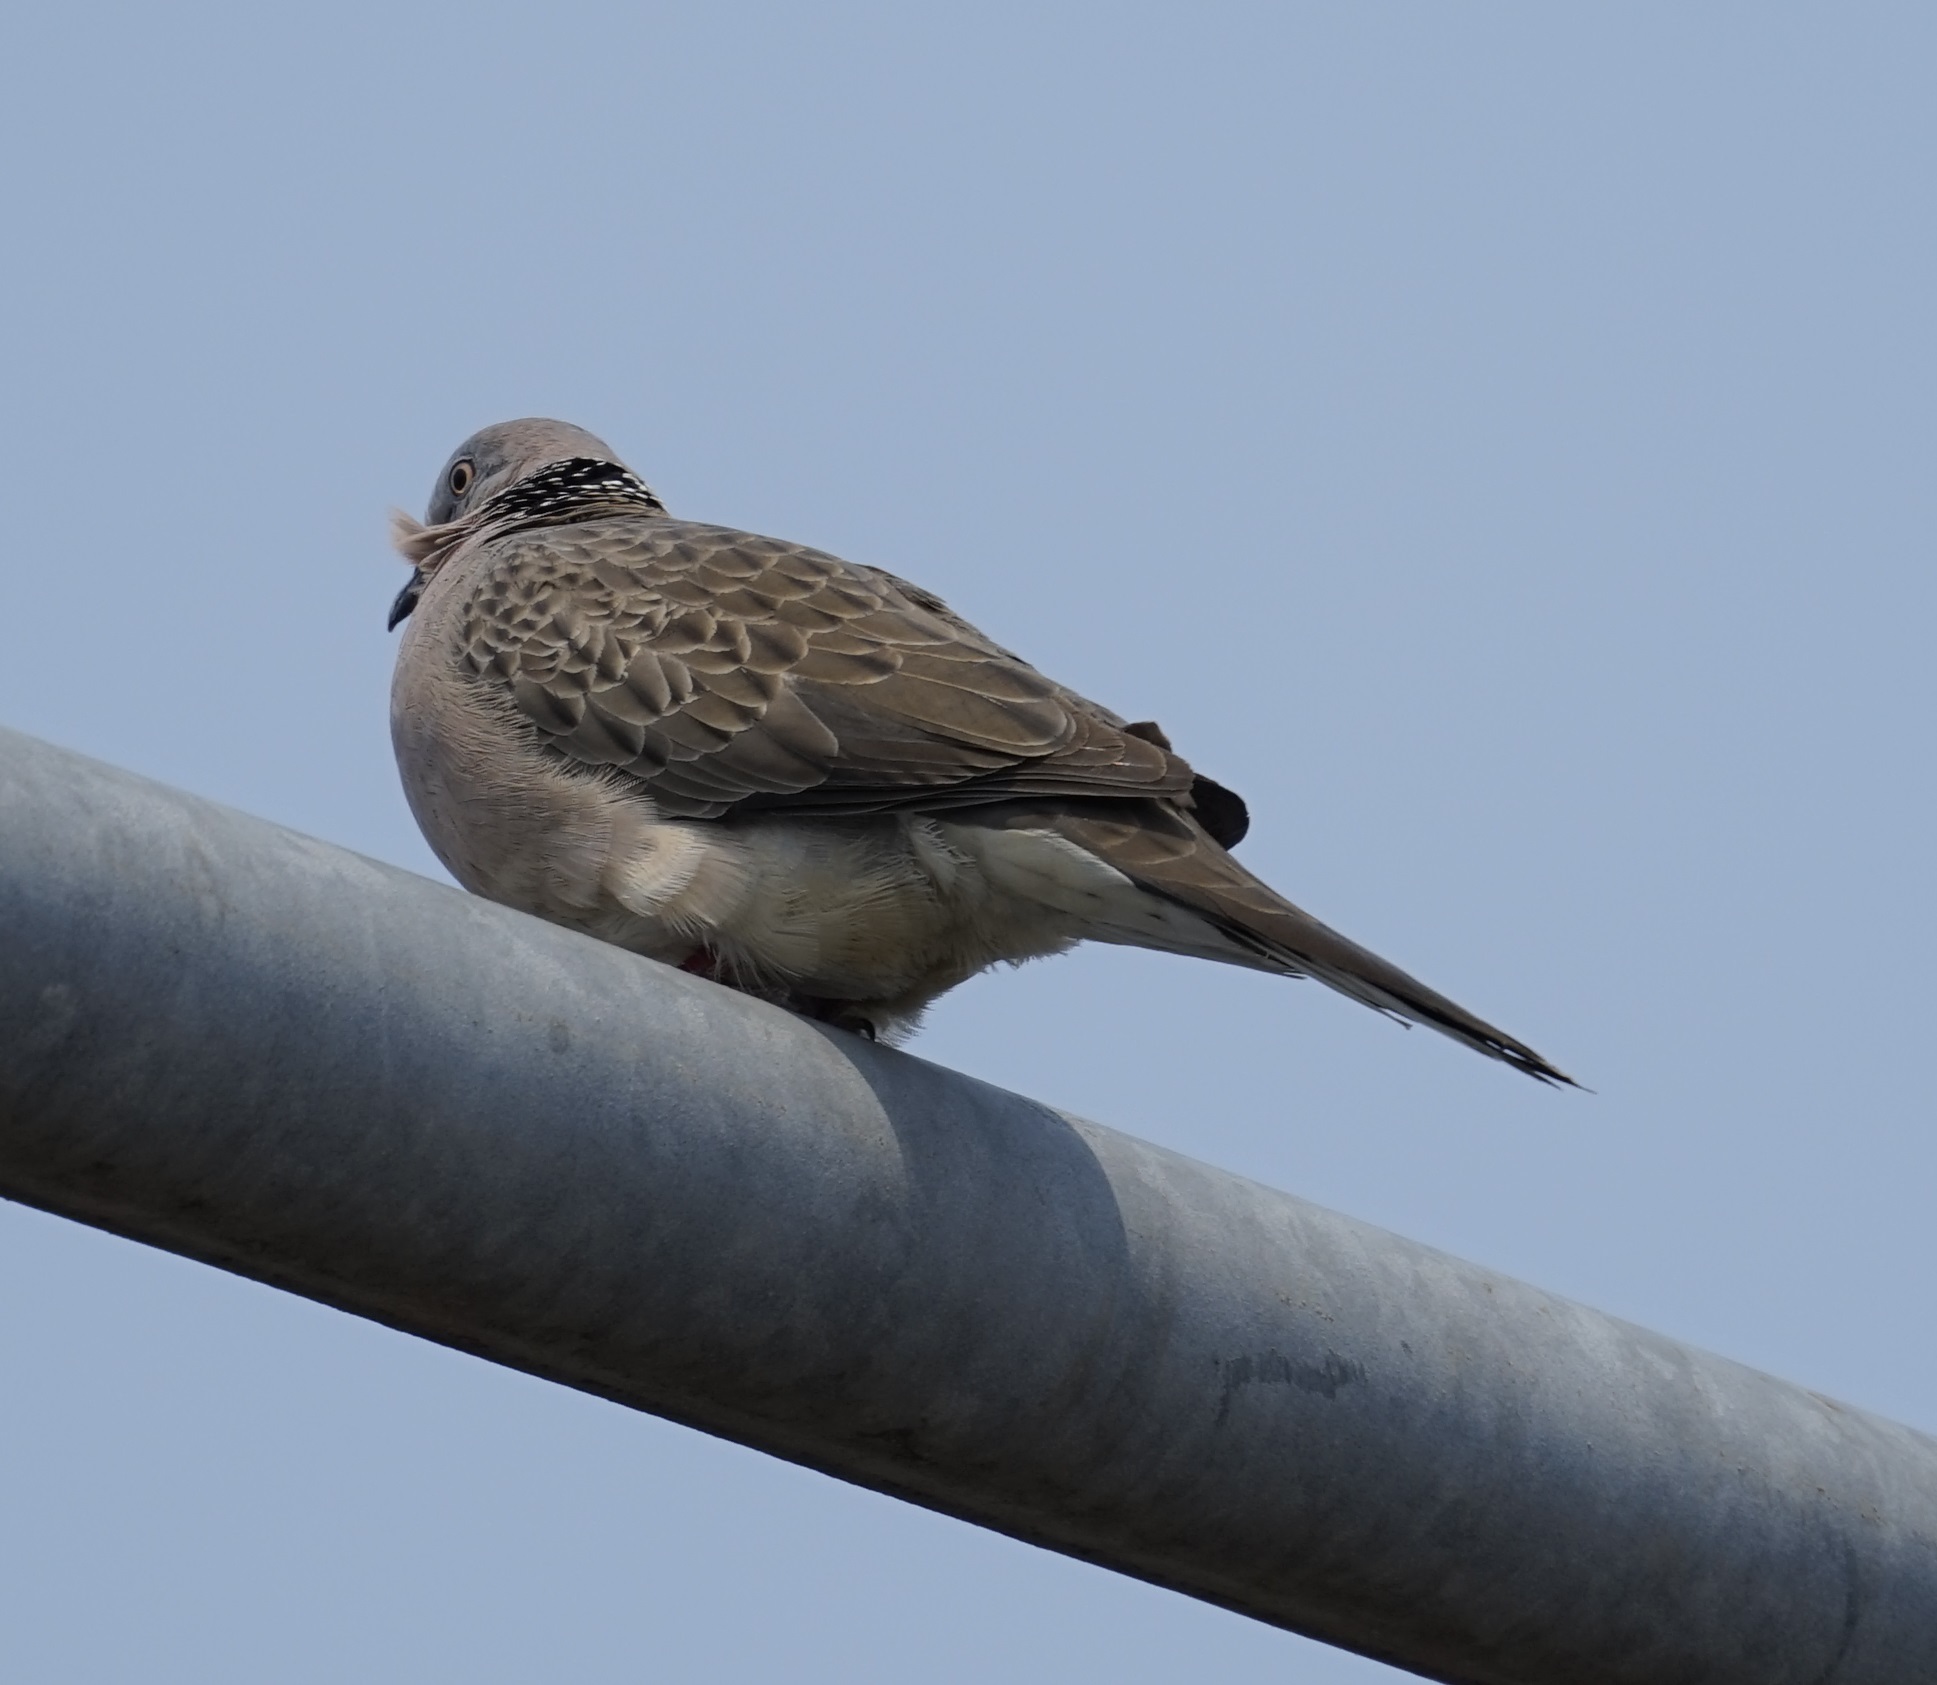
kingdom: Animalia
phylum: Chordata
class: Aves
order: Columbiformes
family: Columbidae
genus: Spilopelia
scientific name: Spilopelia chinensis
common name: Spotted dove
